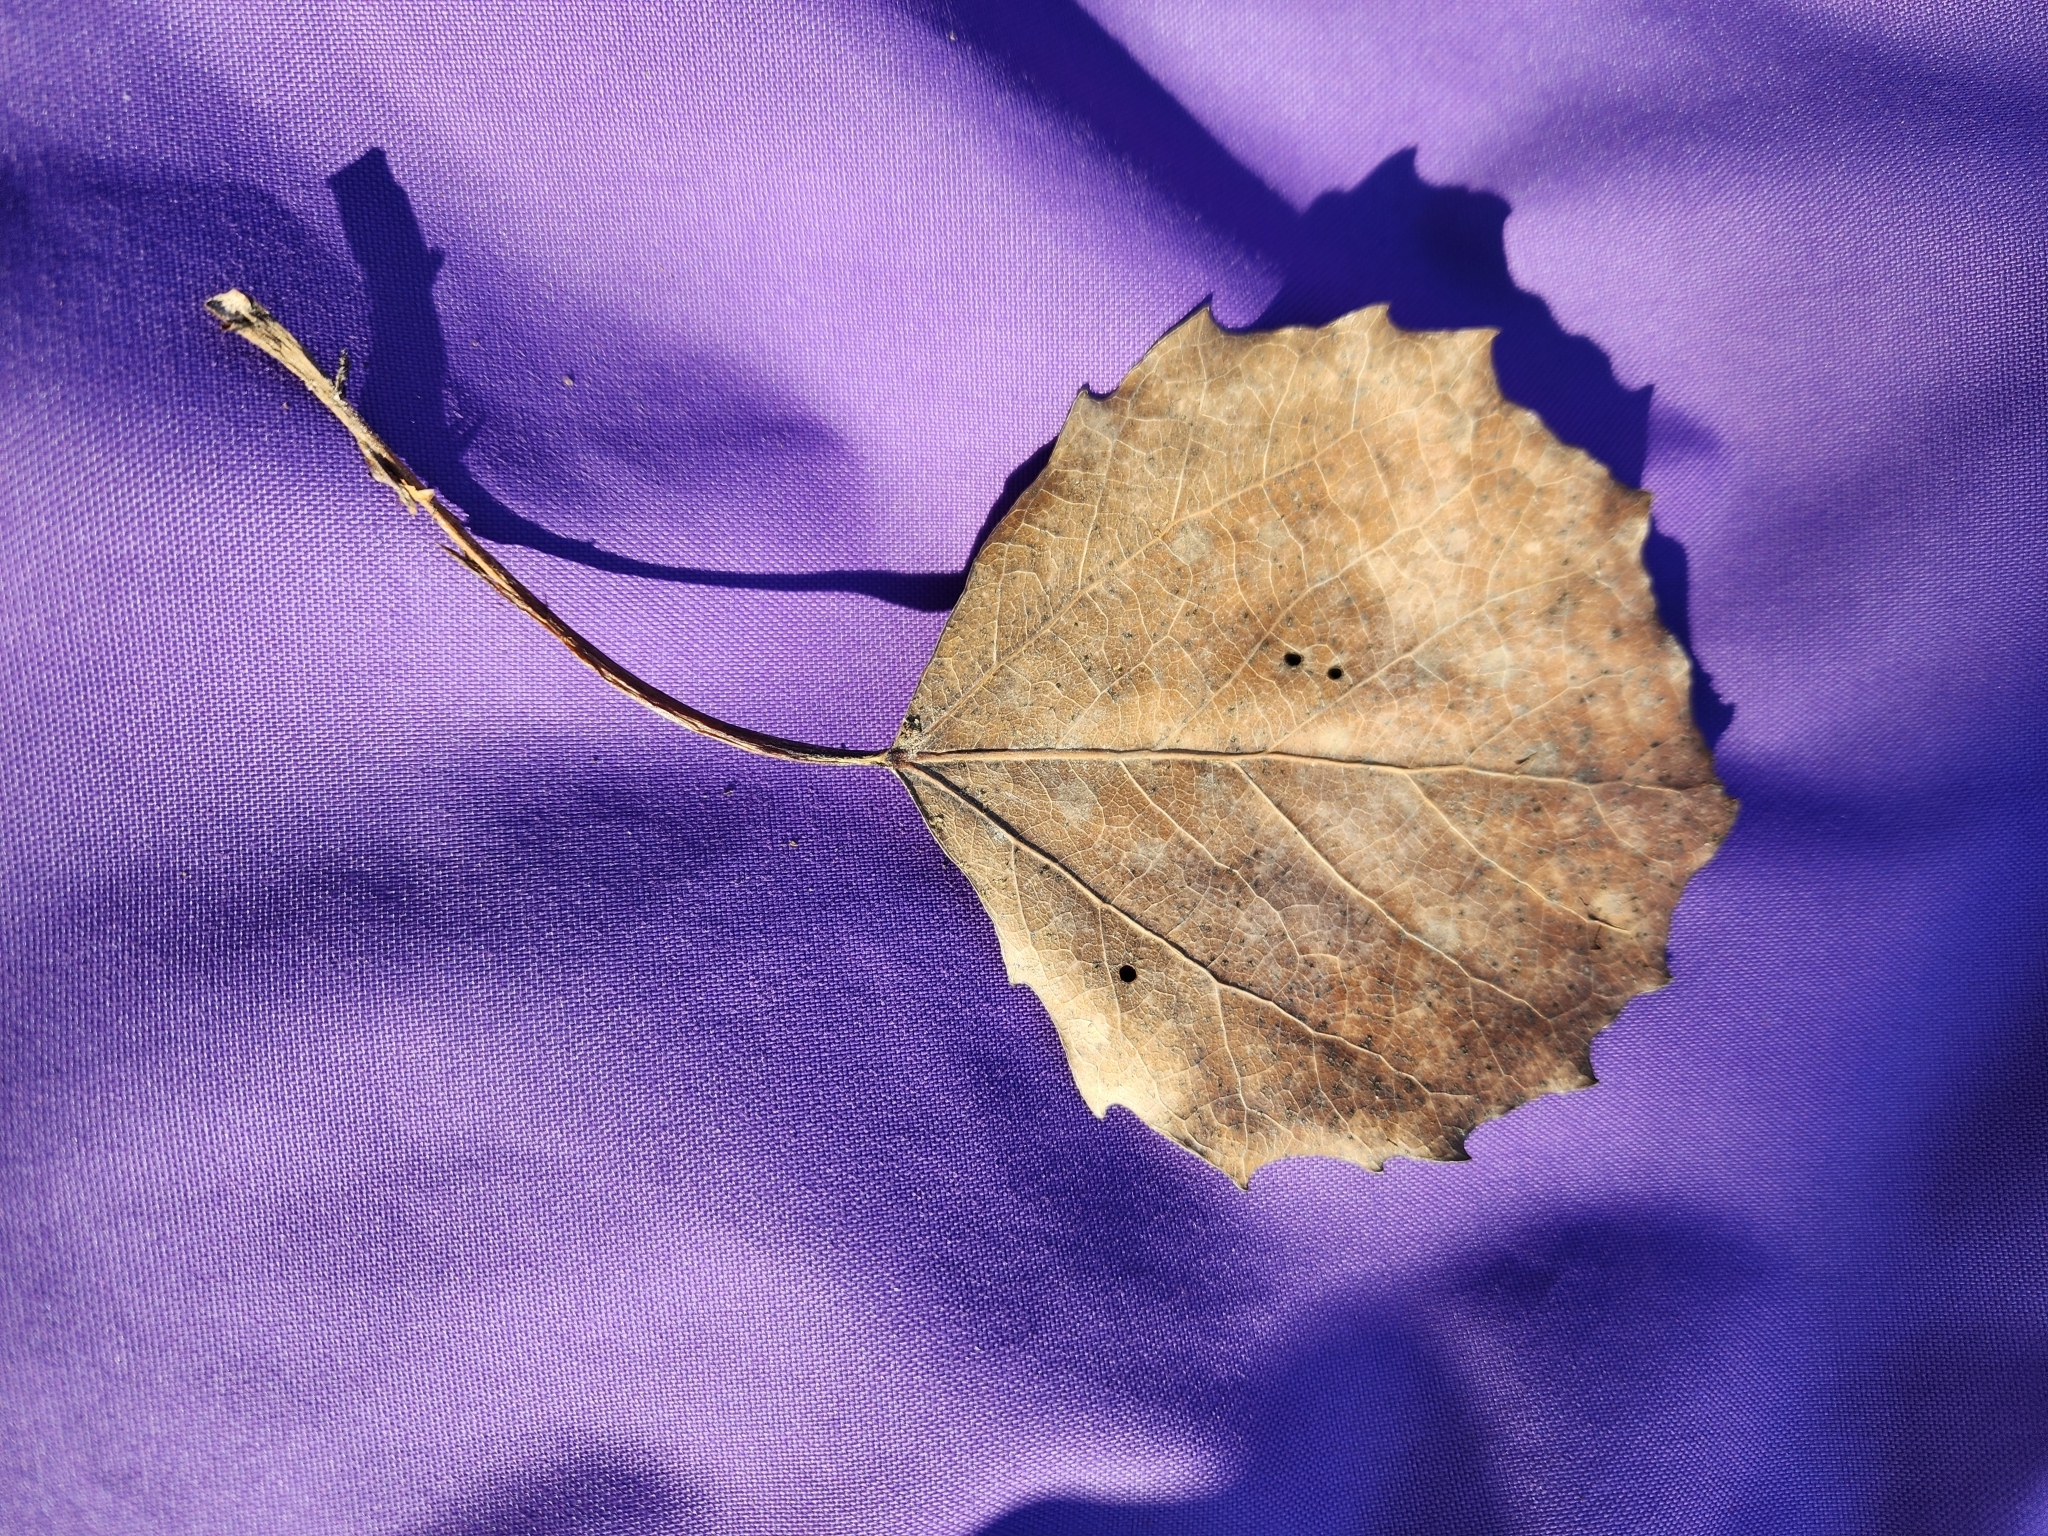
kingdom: Plantae
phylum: Tracheophyta
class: Magnoliopsida
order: Malpighiales
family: Salicaceae
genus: Populus
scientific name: Populus grandidentata
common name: Bigtooth aspen
